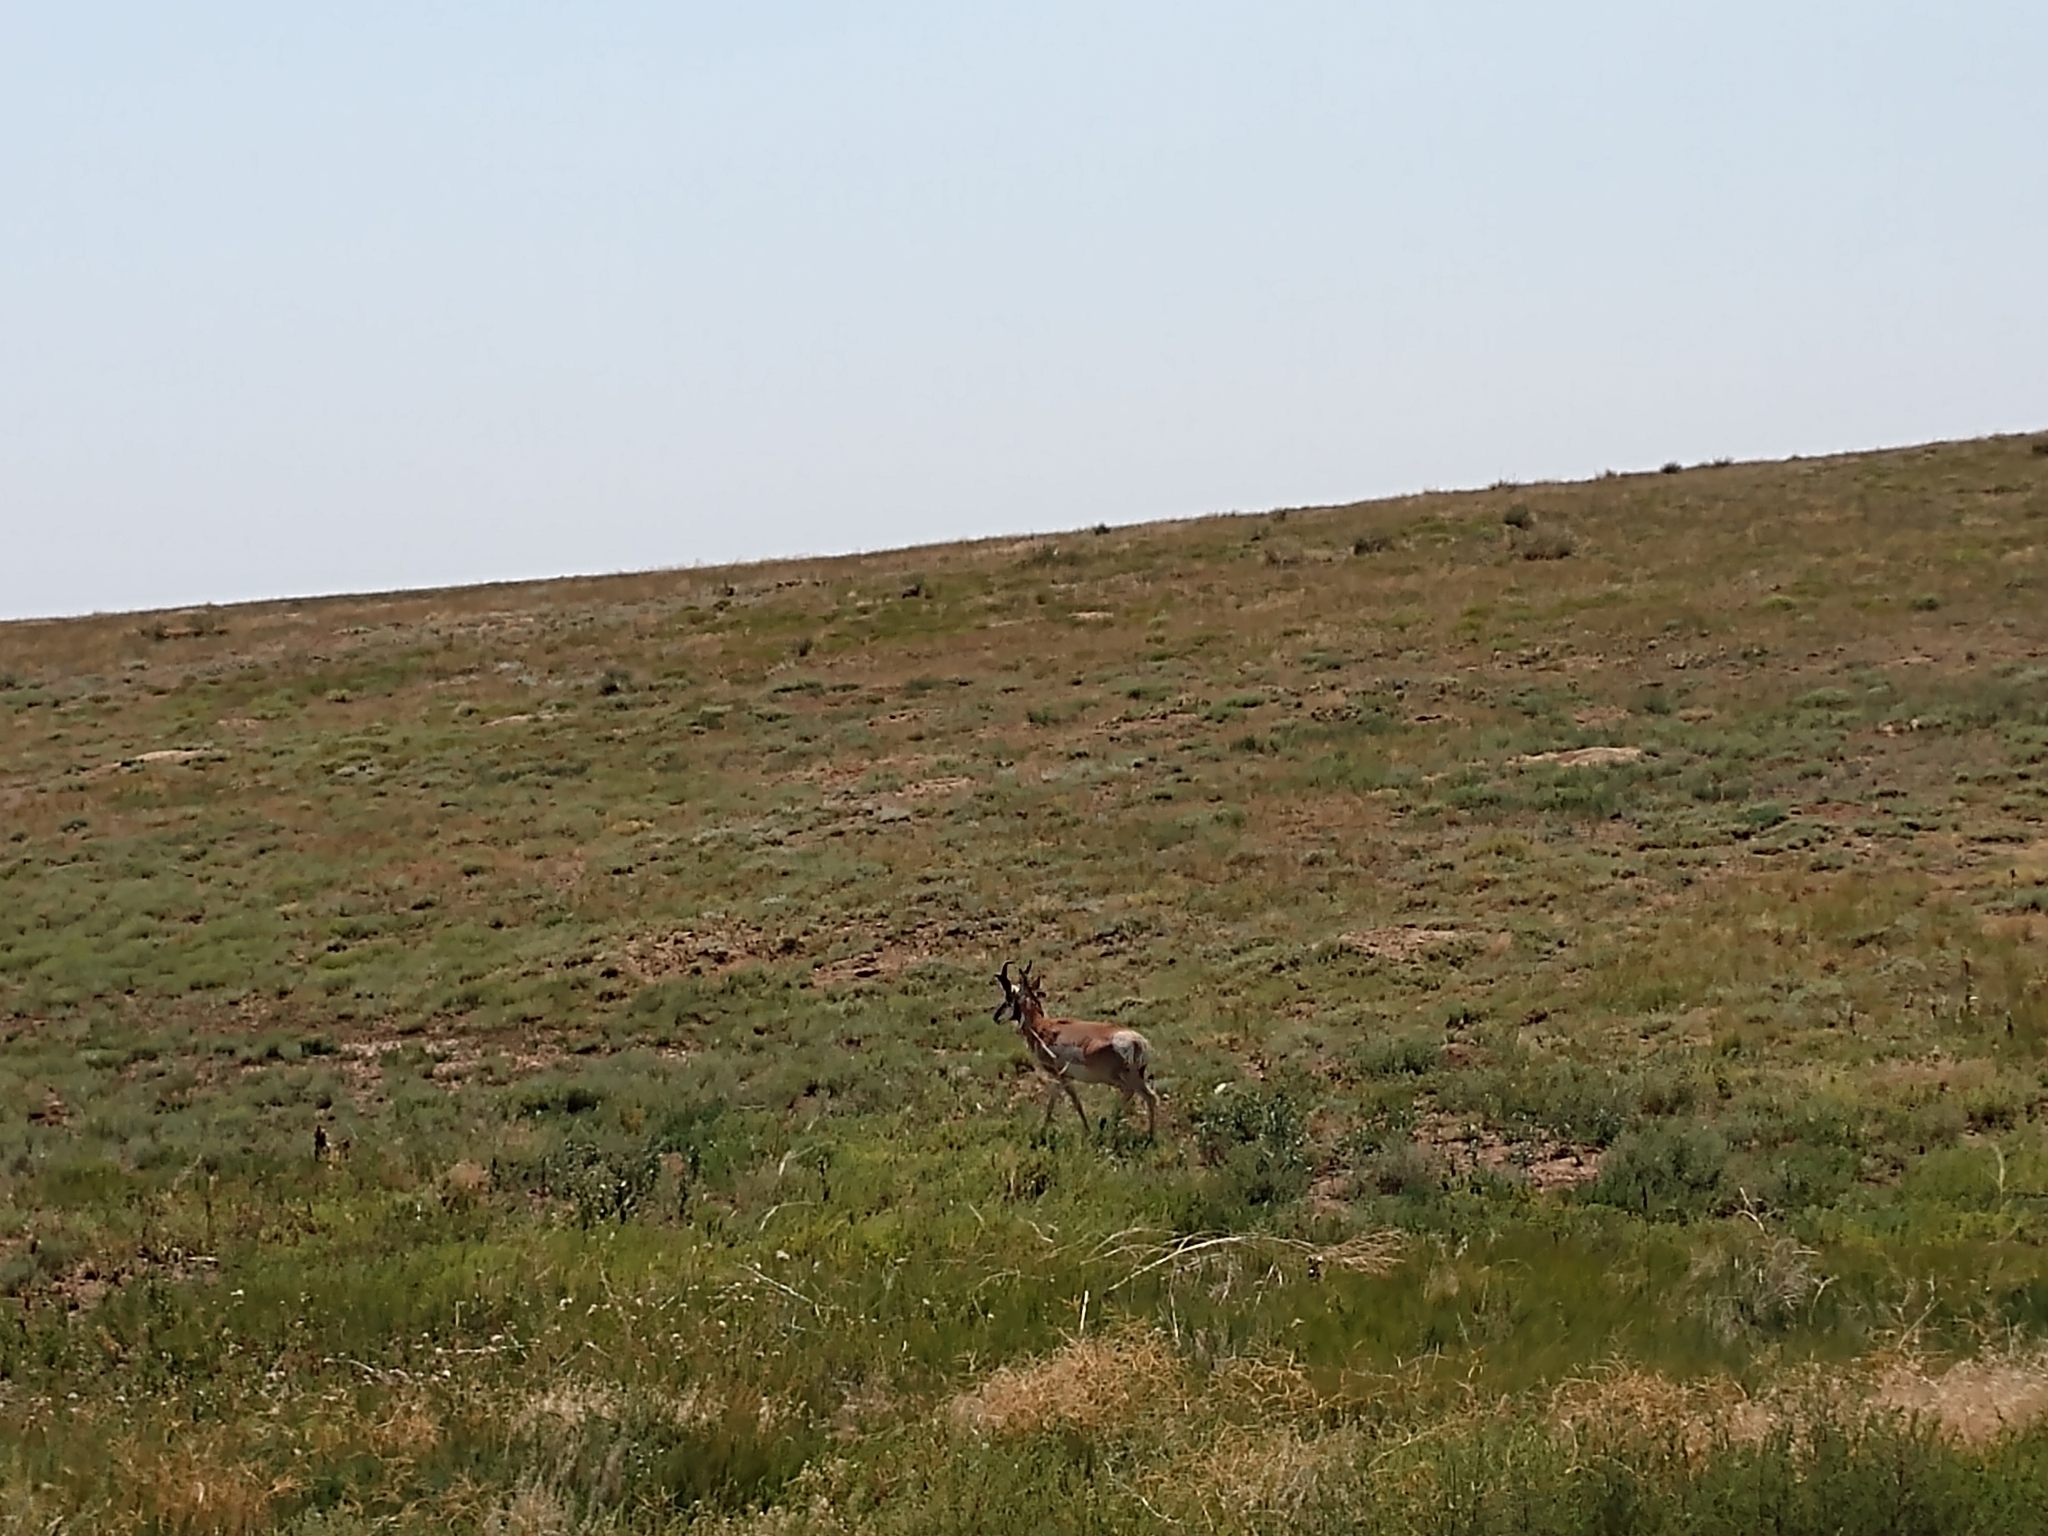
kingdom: Animalia
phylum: Chordata
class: Mammalia
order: Artiodactyla
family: Antilocapridae
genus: Antilocapra
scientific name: Antilocapra americana
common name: Pronghorn
